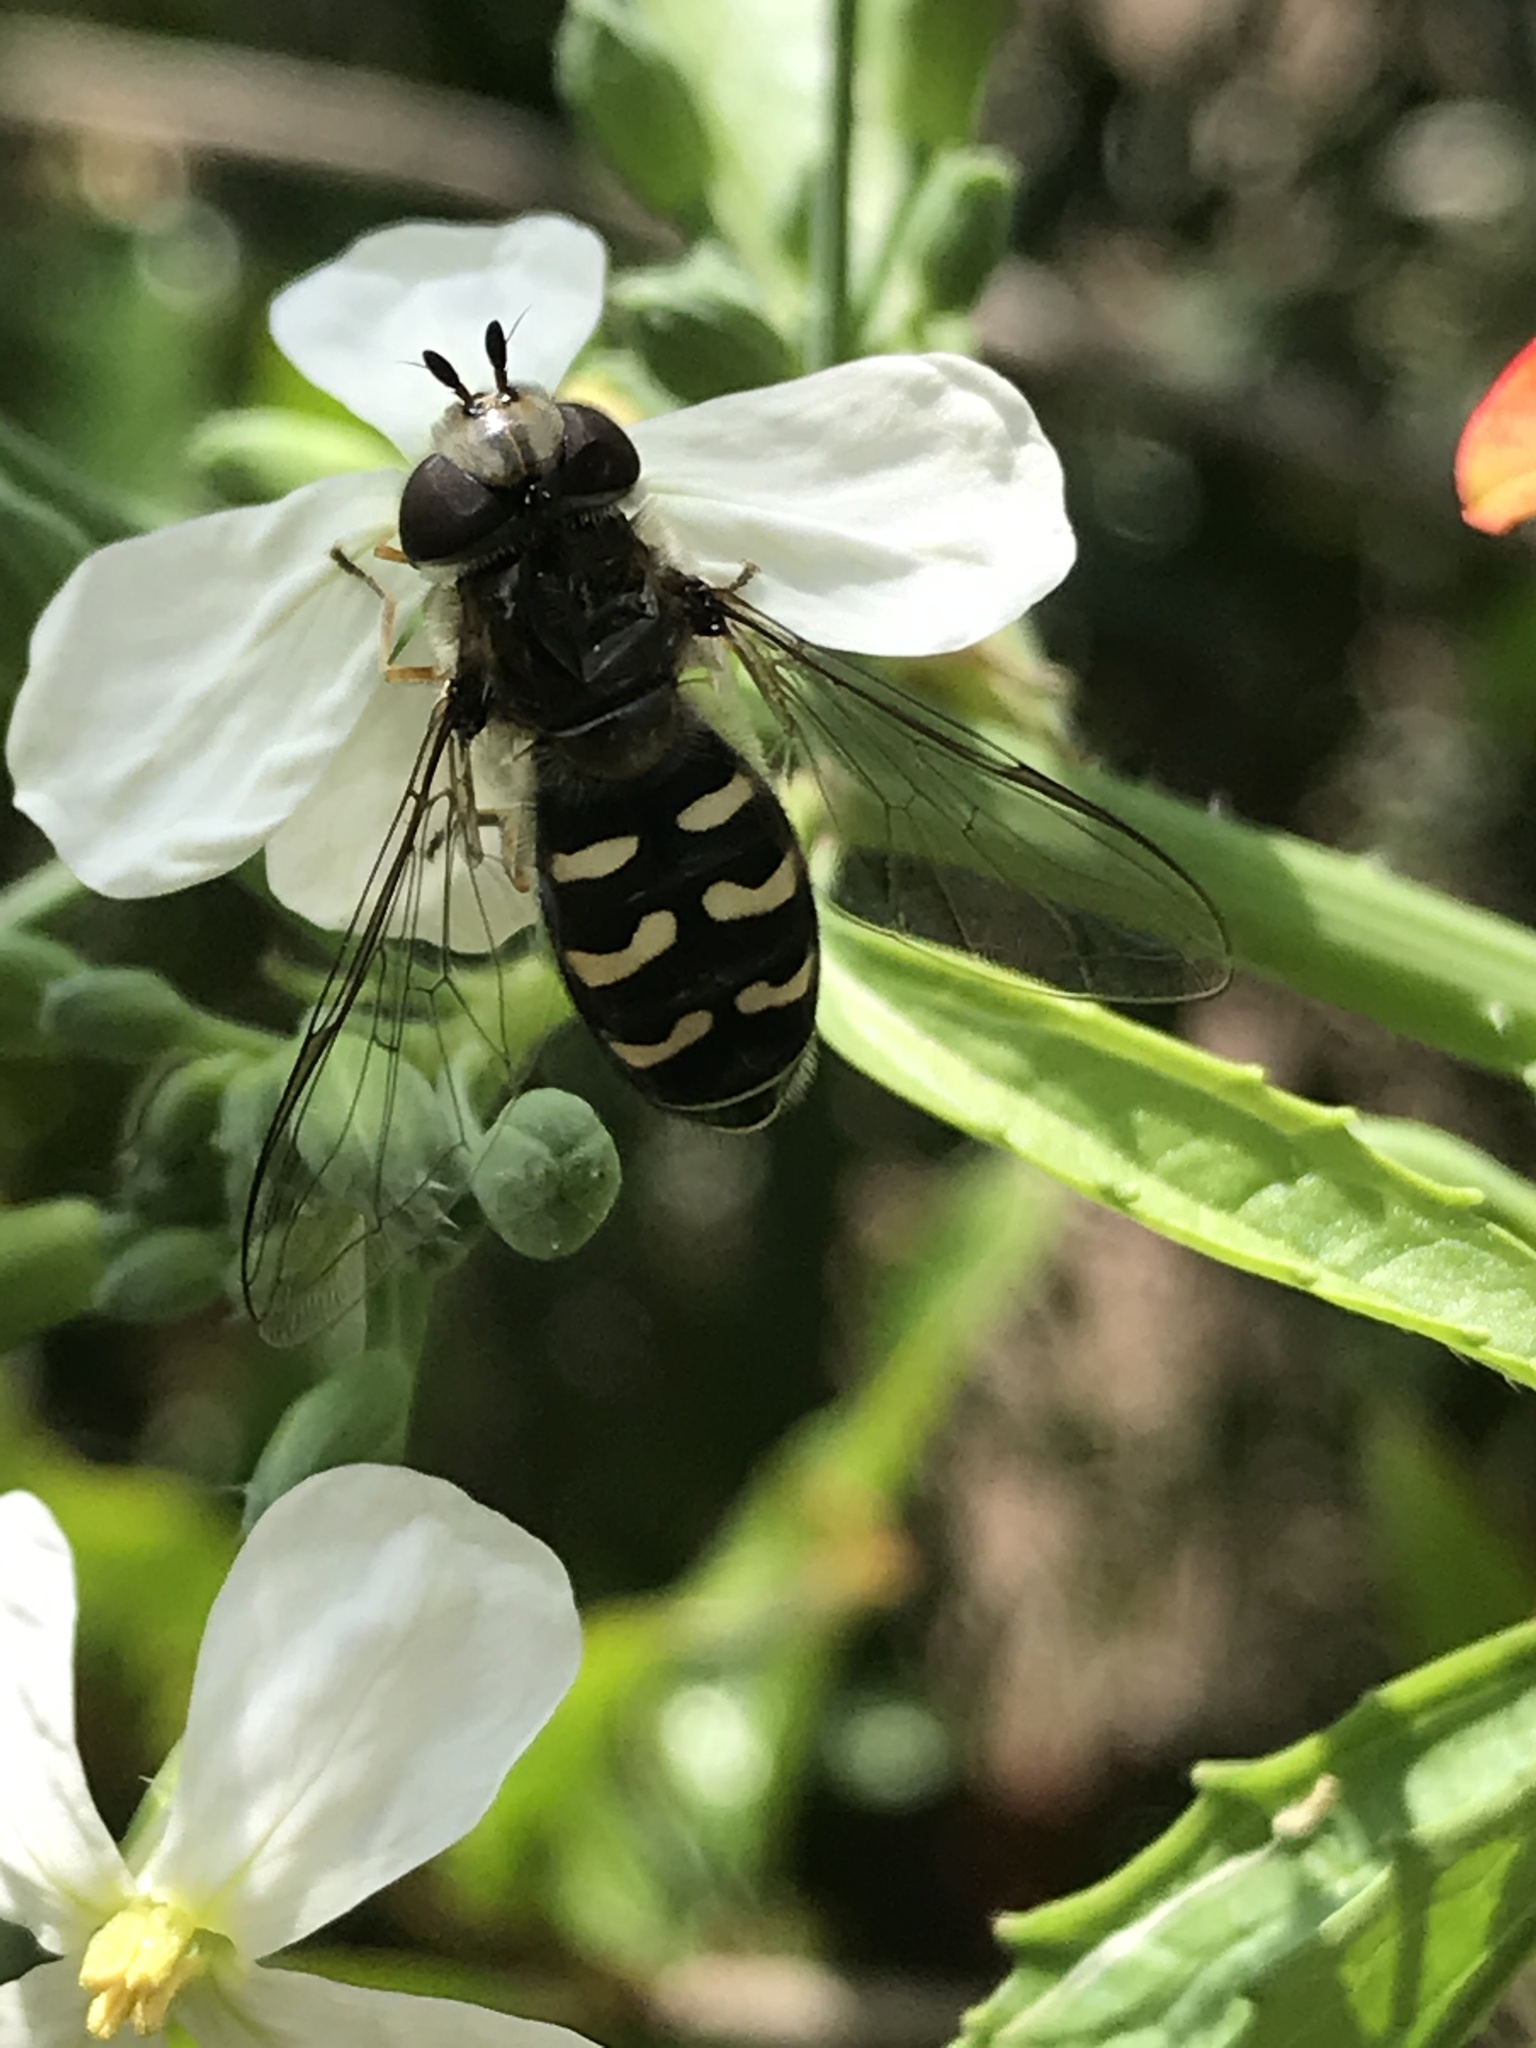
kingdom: Animalia
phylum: Arthropoda
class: Insecta
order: Diptera
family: Syrphidae
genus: Scaeva
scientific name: Scaeva affinis
